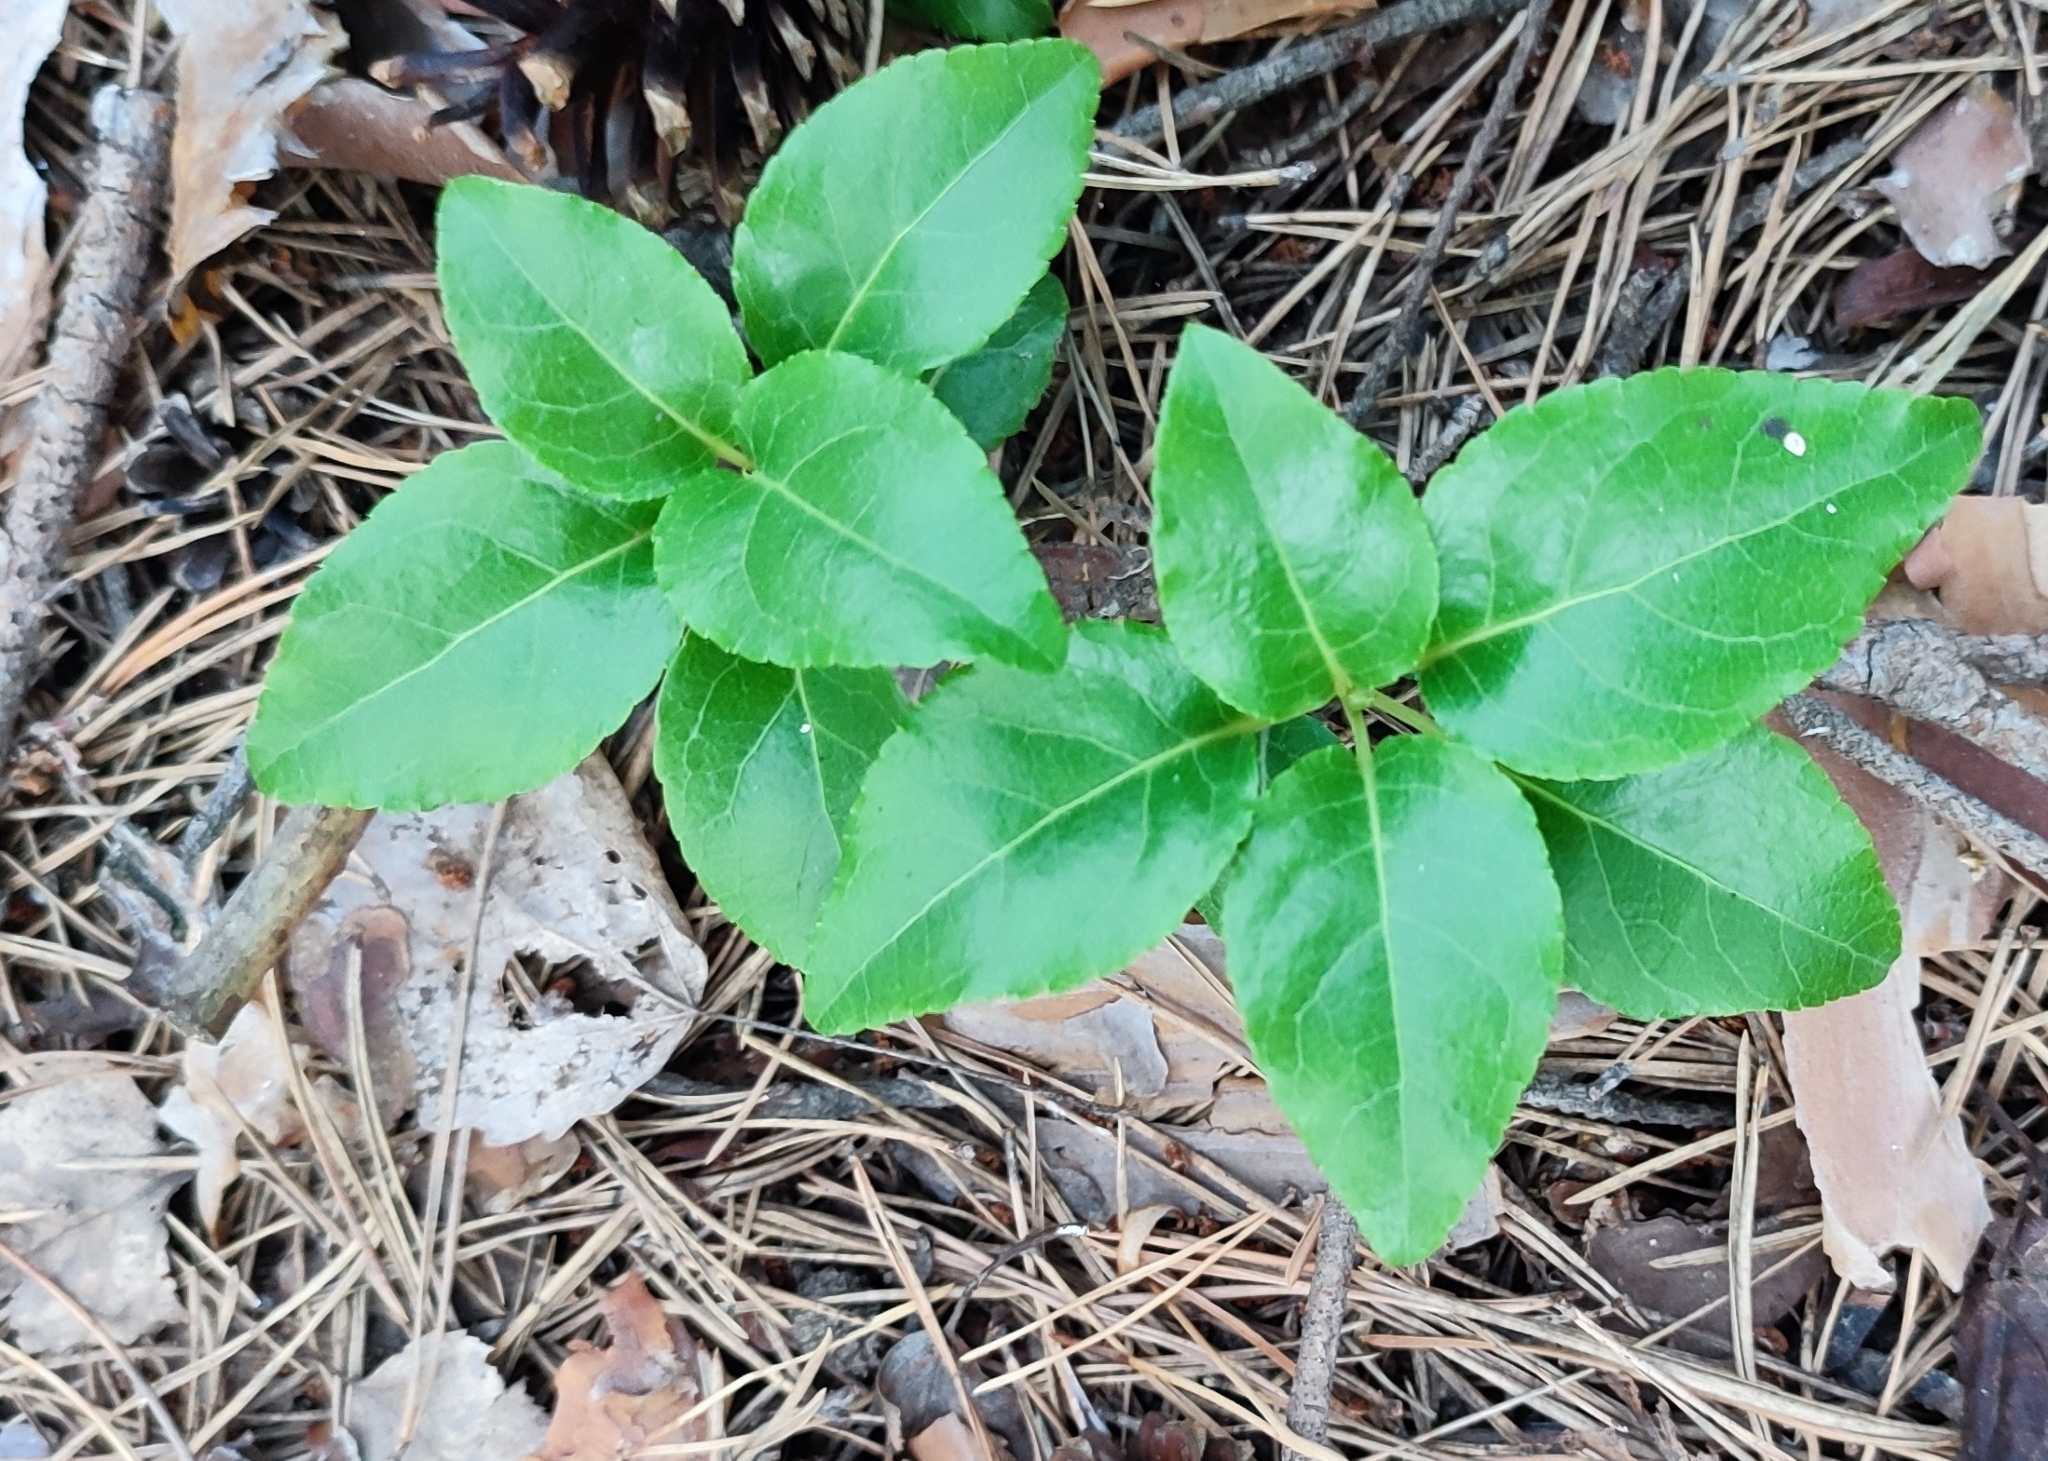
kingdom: Plantae
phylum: Tracheophyta
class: Magnoliopsida
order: Ericales
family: Ericaceae
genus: Orthilia
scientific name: Orthilia secunda
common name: One-sided orthilia
